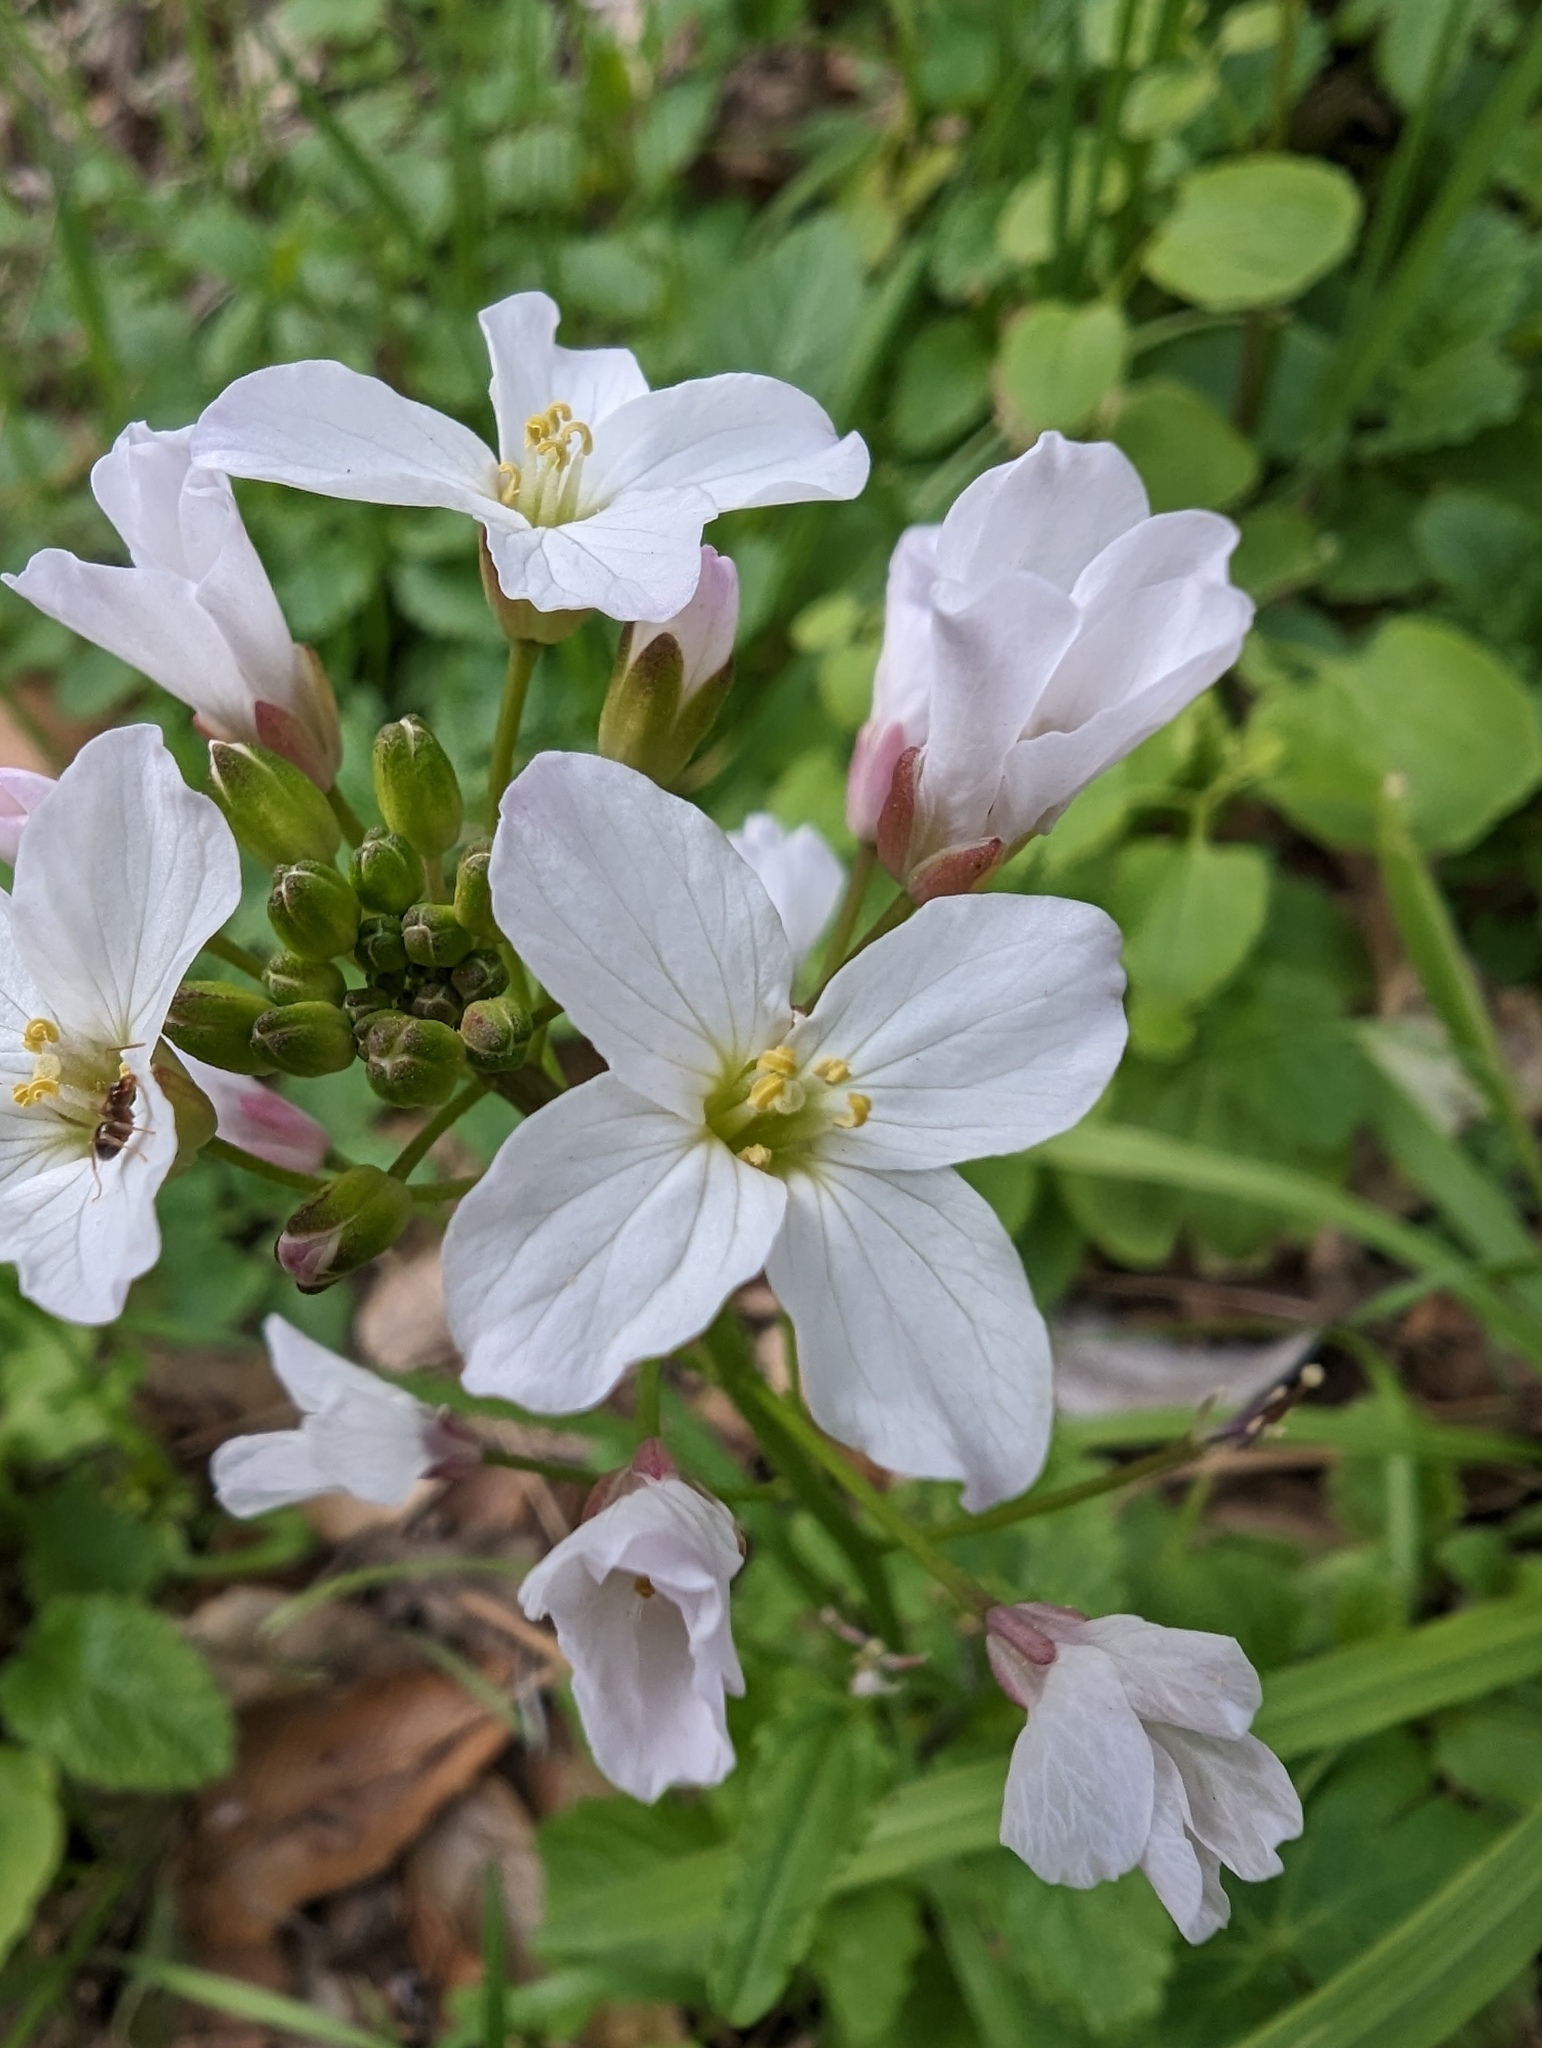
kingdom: Plantae
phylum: Tracheophyta
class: Magnoliopsida
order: Brassicales
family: Brassicaceae
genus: Cardamine
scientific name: Cardamine californica
